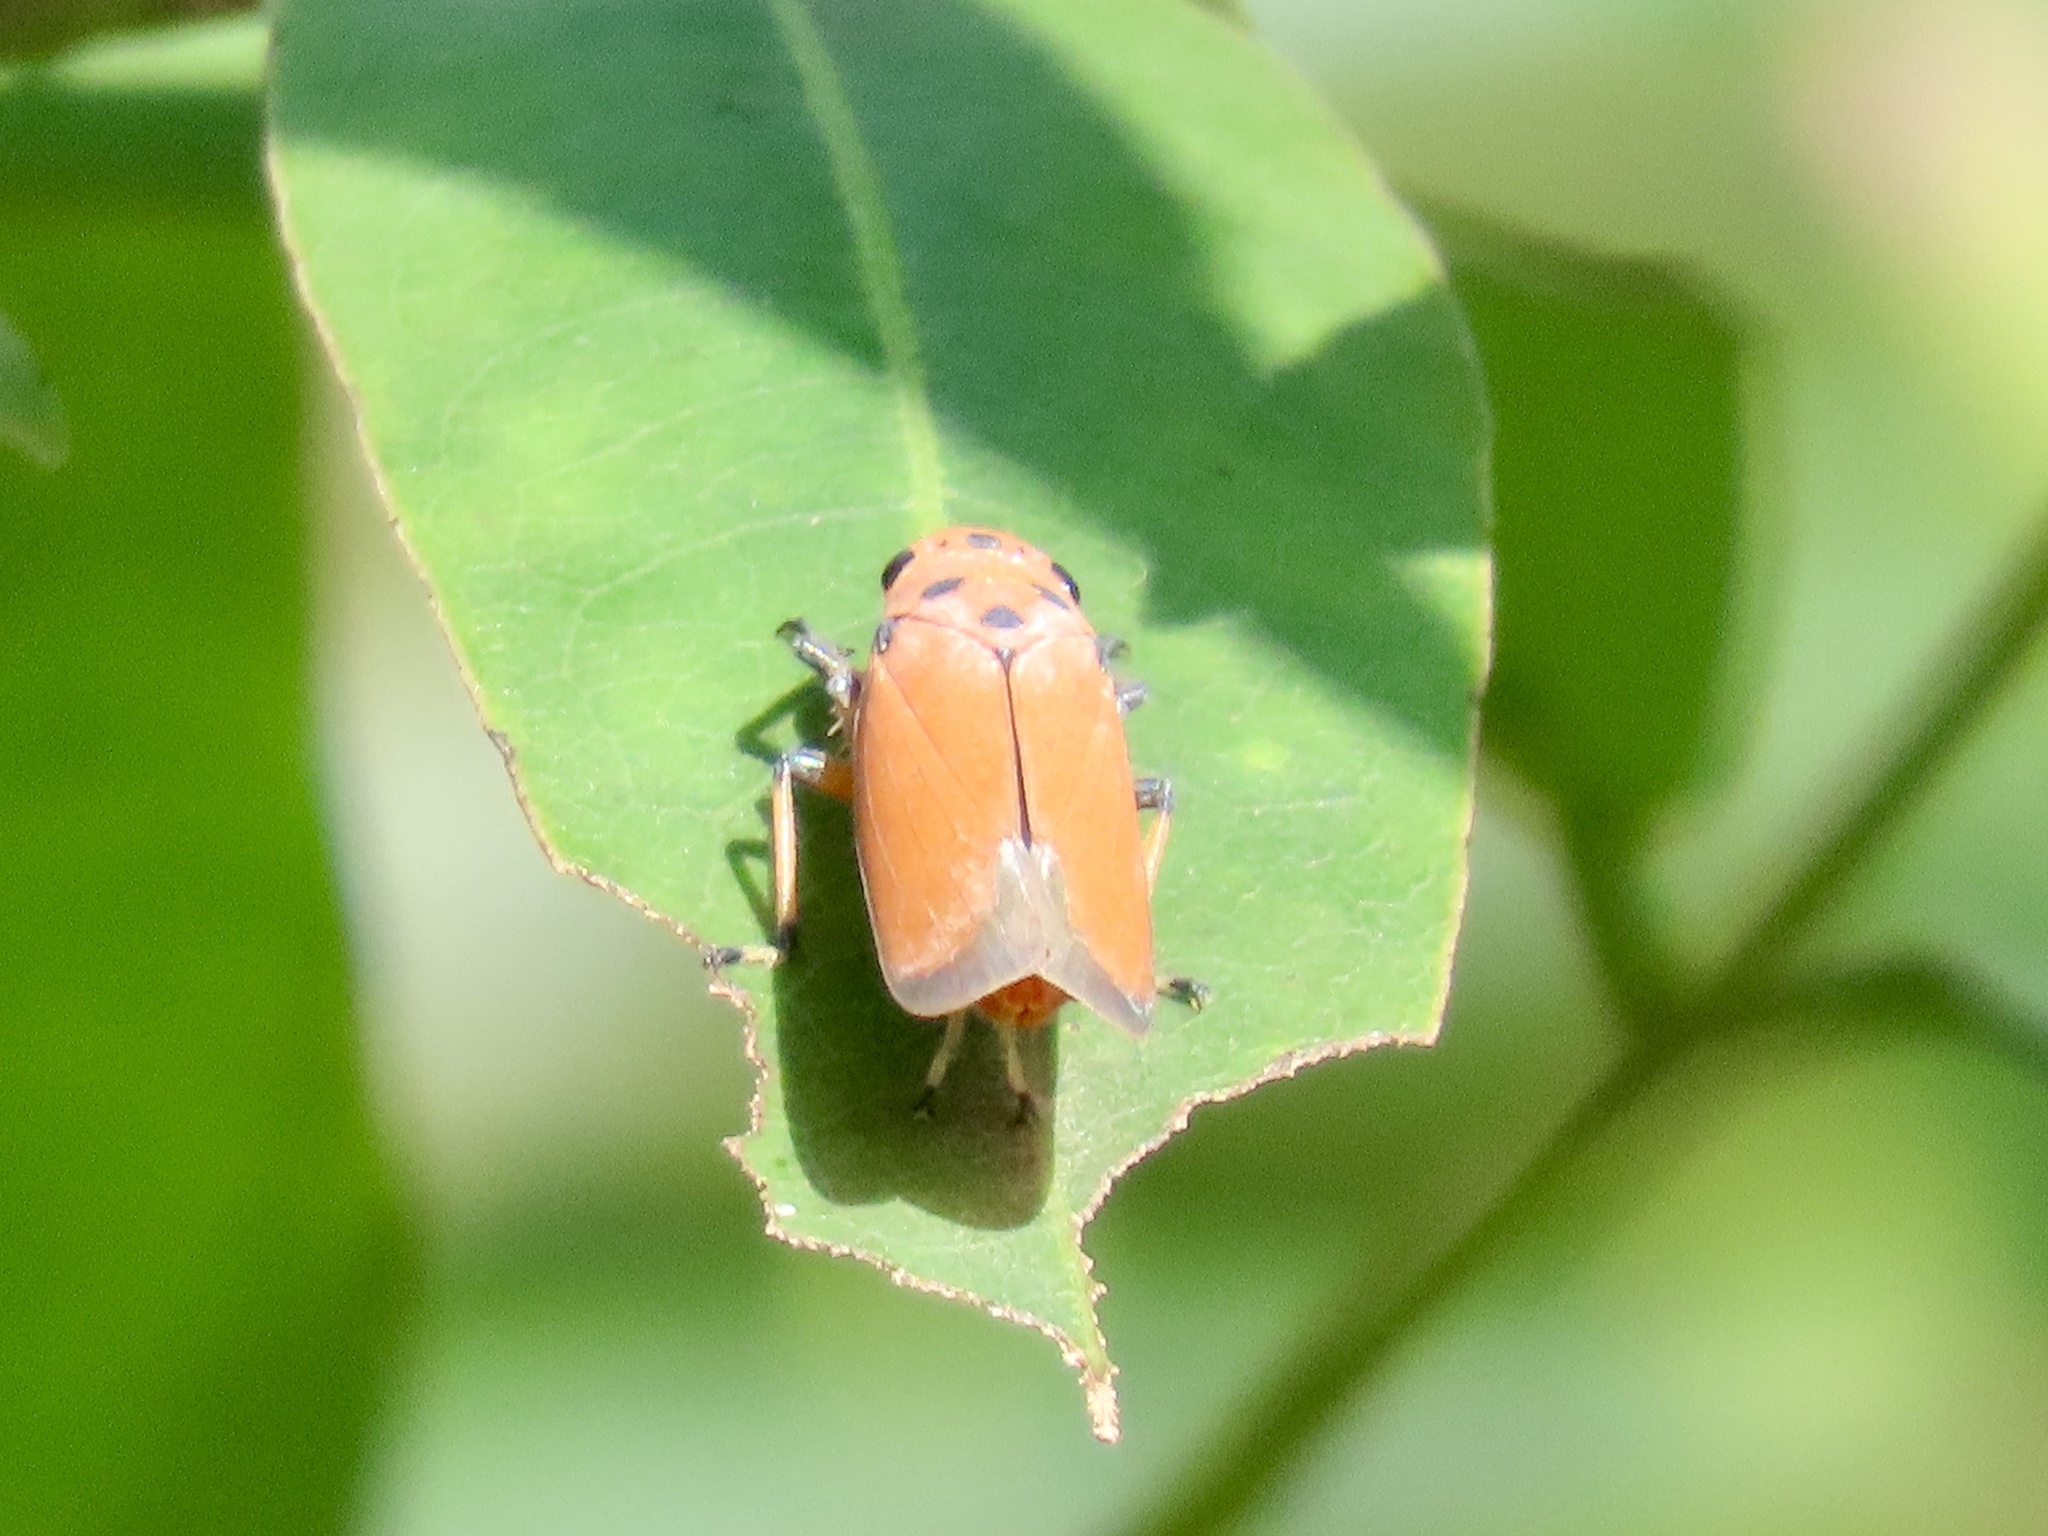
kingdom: Animalia
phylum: Arthropoda
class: Insecta
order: Hemiptera
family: Cicadellidae
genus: Bothrogonia
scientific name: Bothrogonia addita
